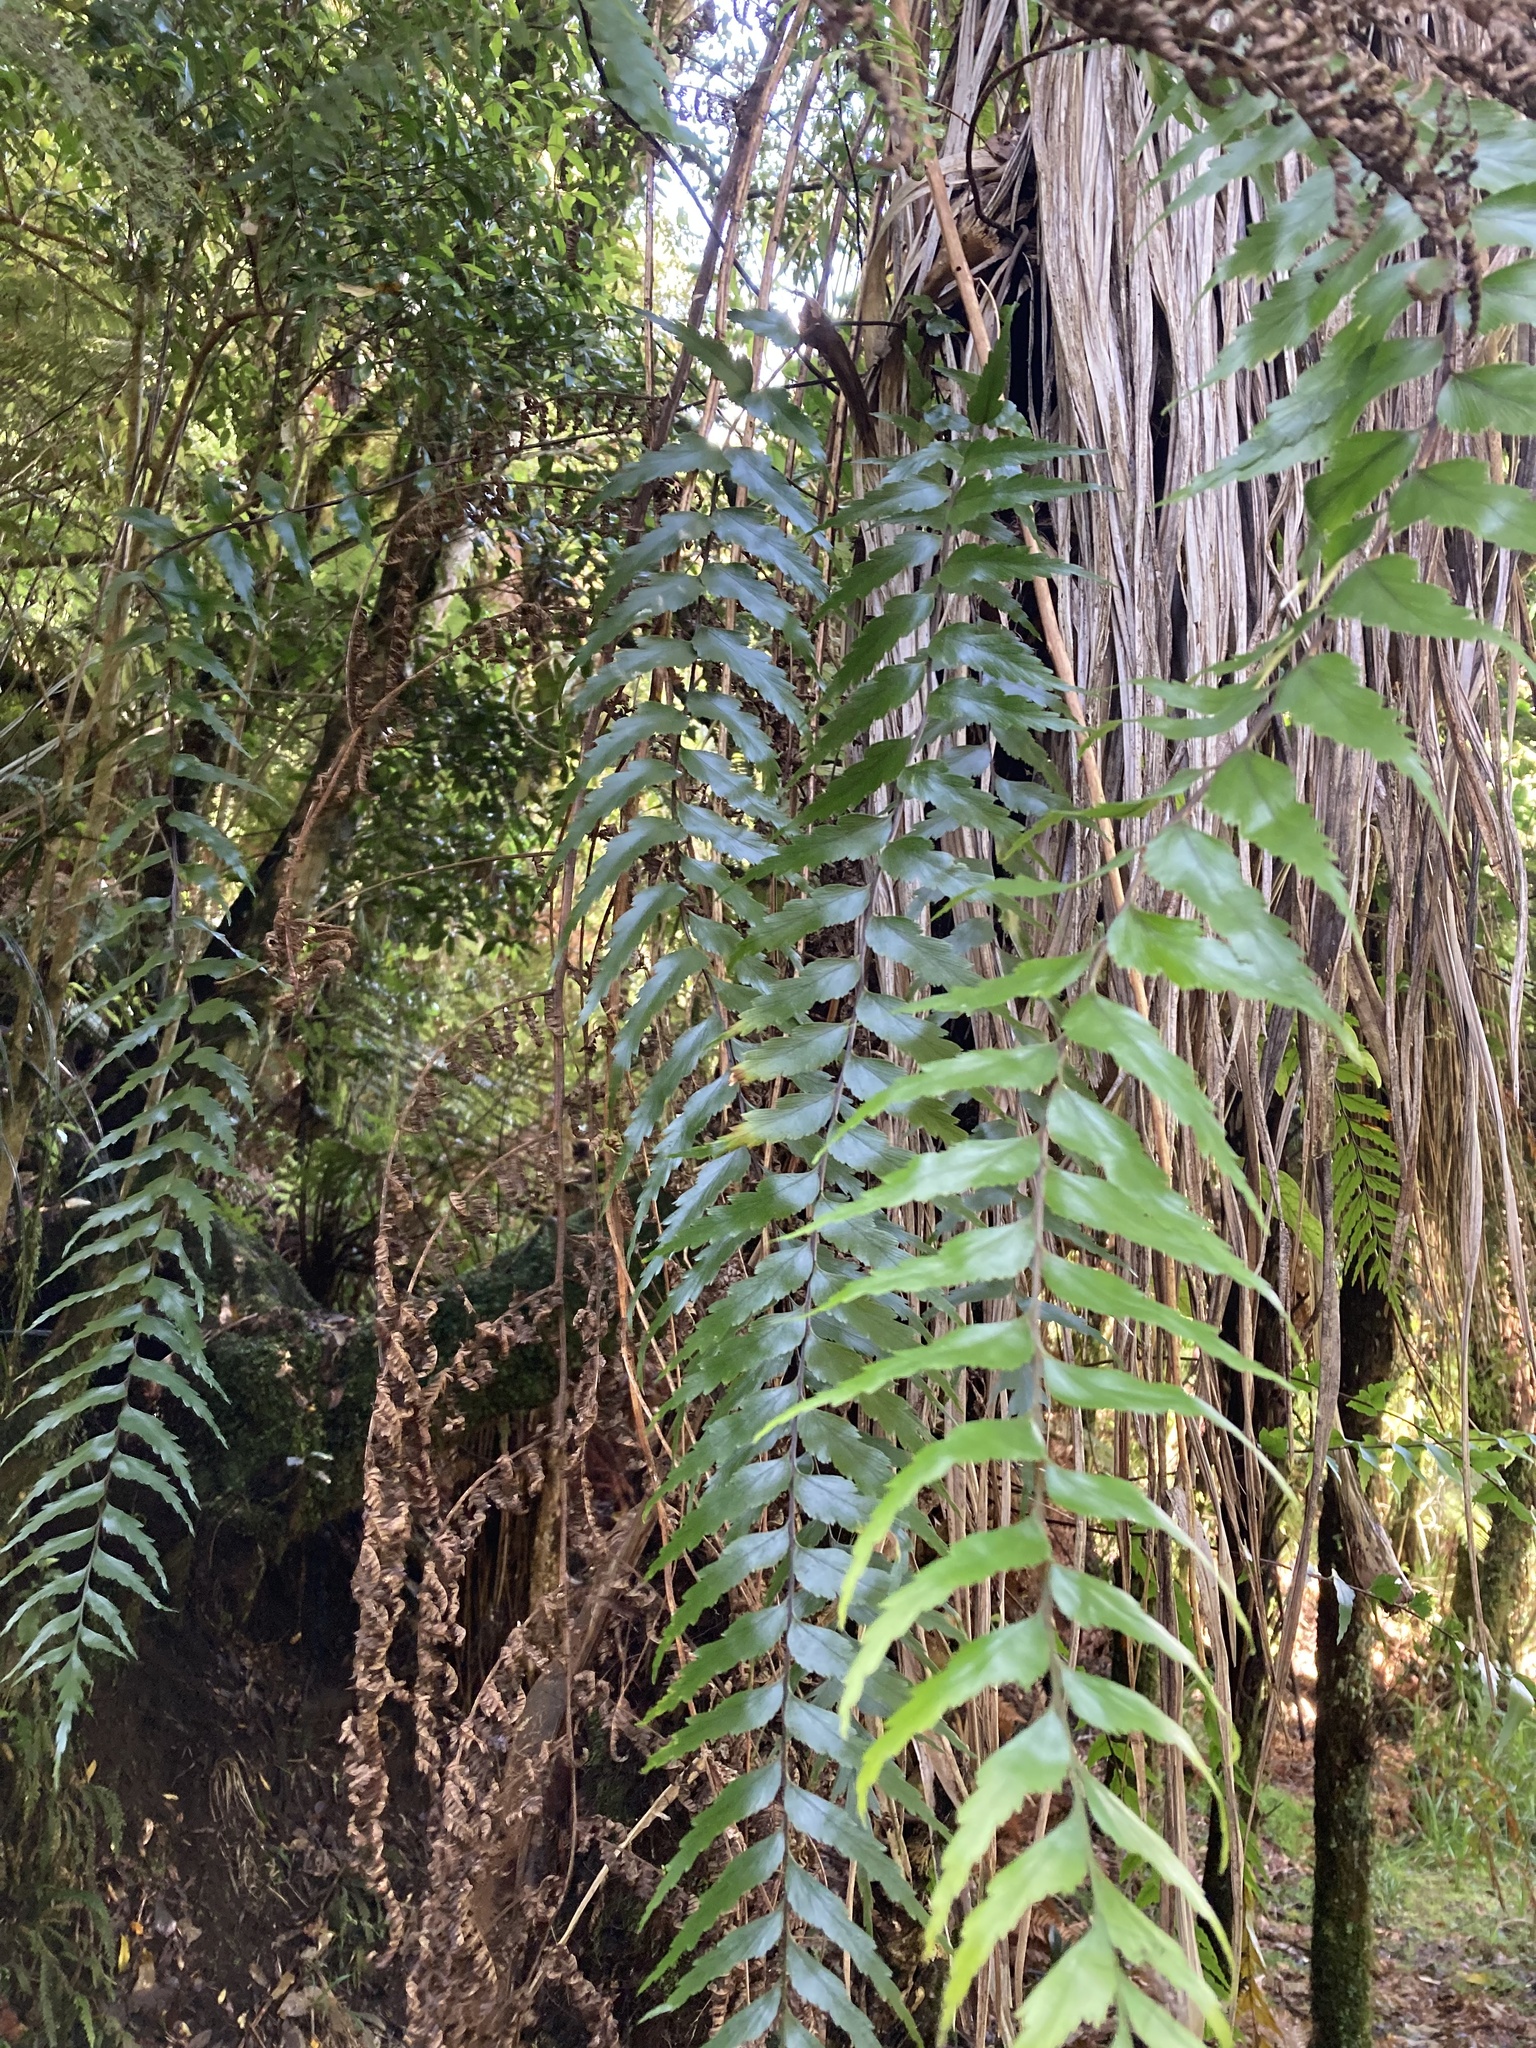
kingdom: Plantae
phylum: Tracheophyta
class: Polypodiopsida
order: Polypodiales
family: Aspleniaceae
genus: Asplenium
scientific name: Asplenium polyodon
